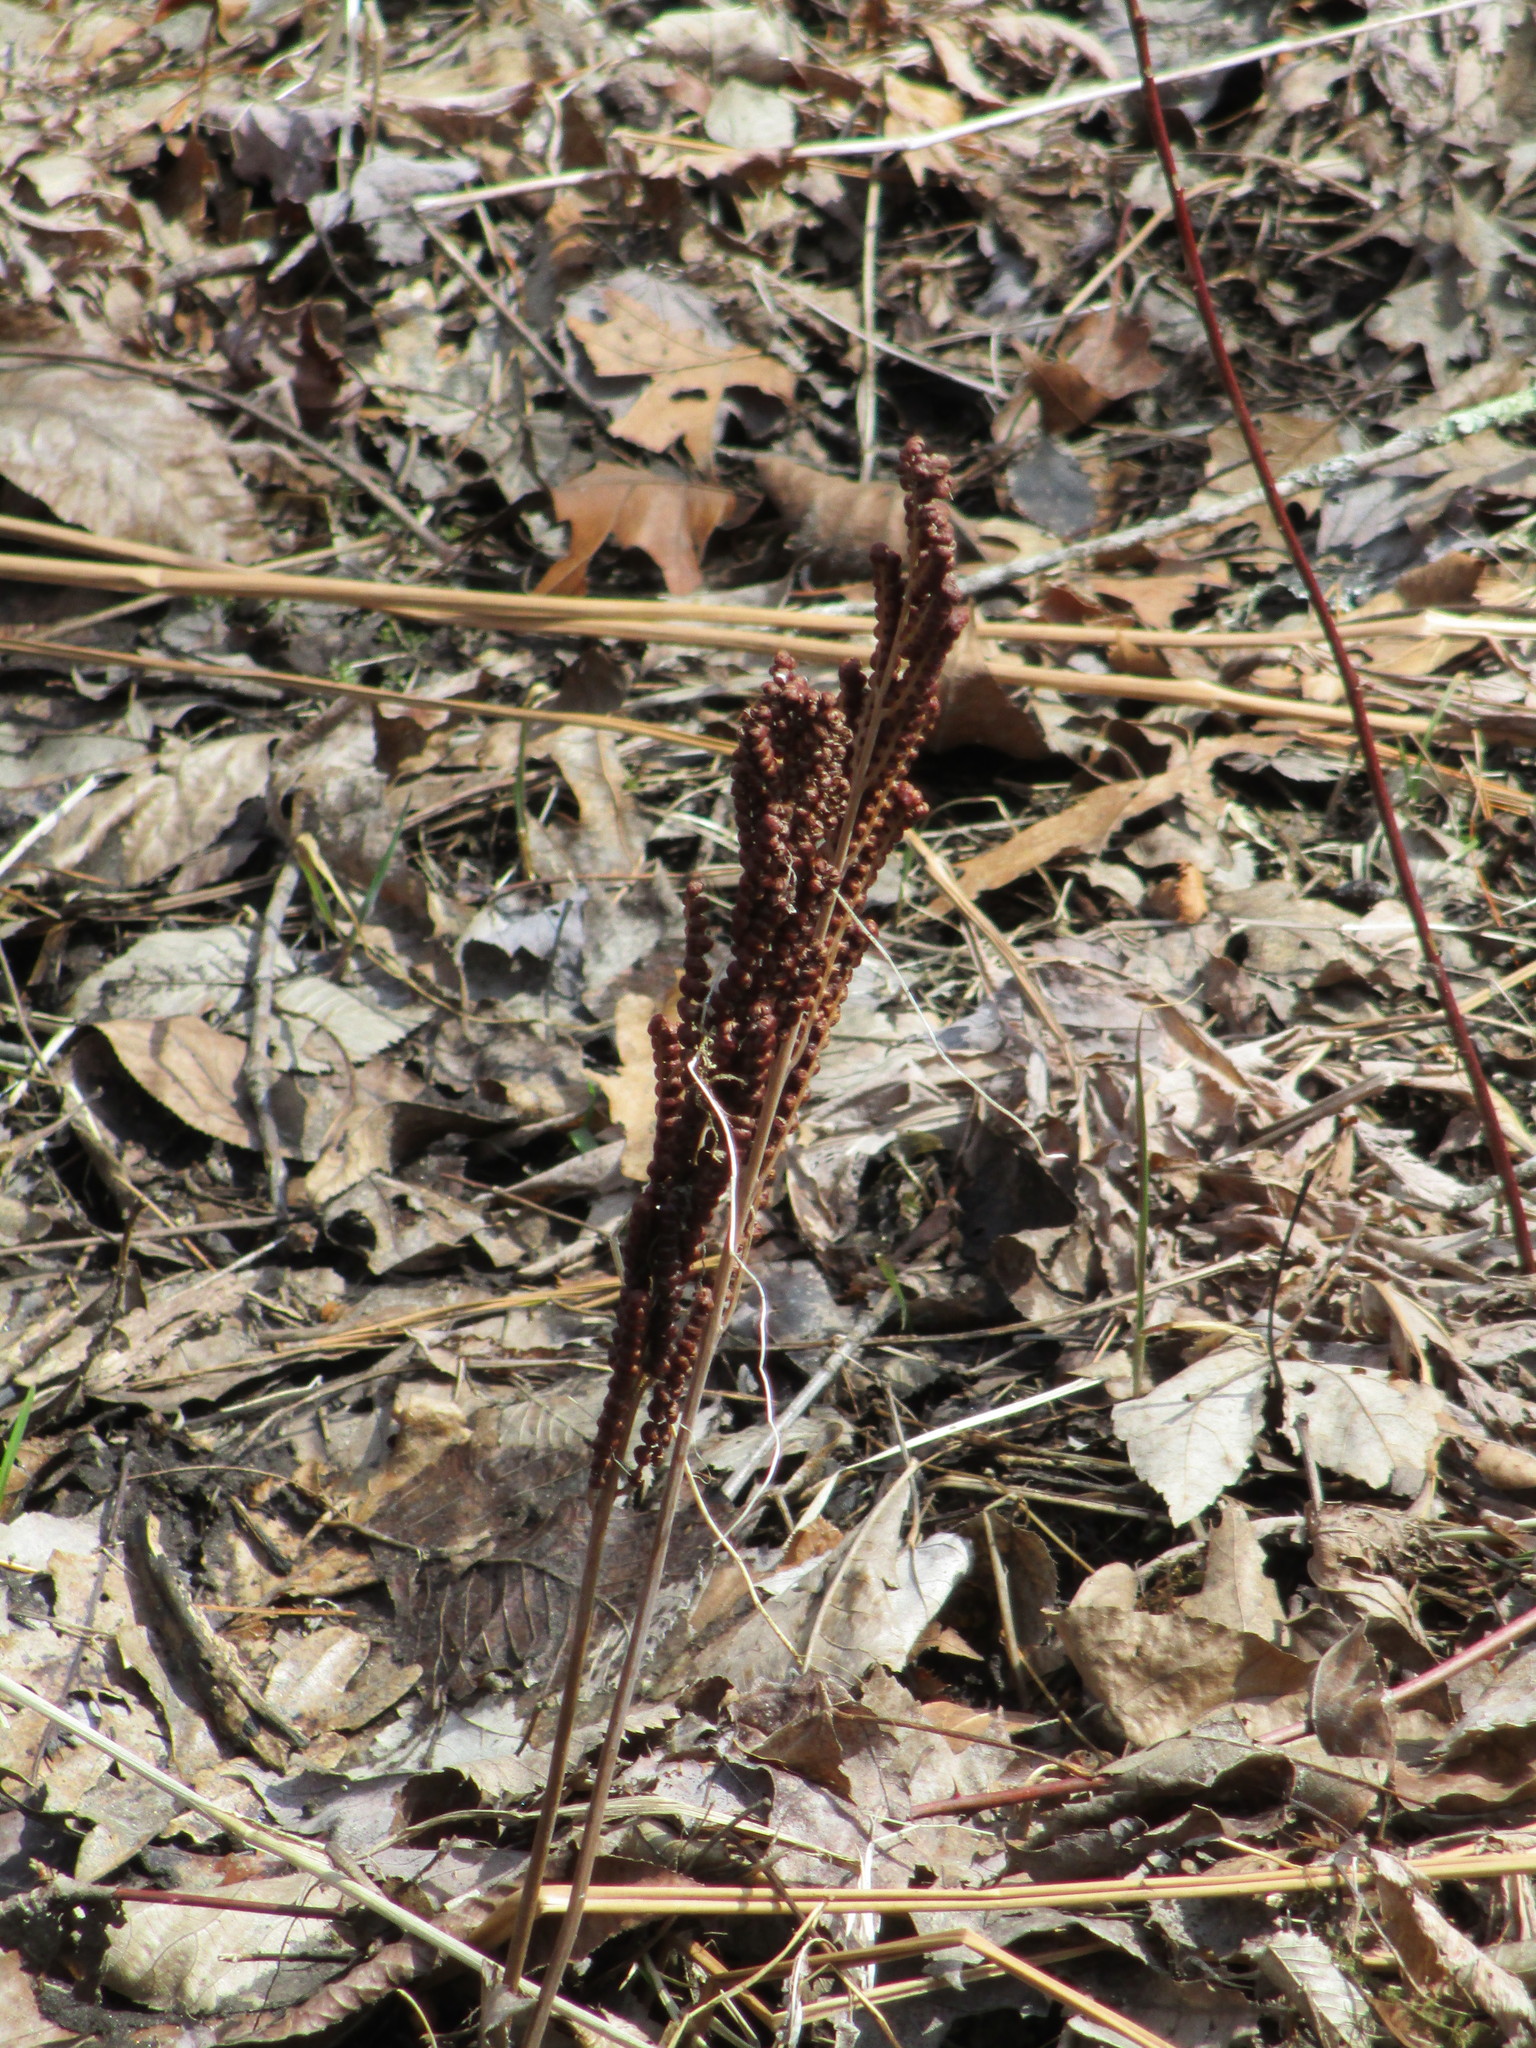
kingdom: Plantae
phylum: Tracheophyta
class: Polypodiopsida
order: Polypodiales
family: Onocleaceae
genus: Onoclea
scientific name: Onoclea sensibilis
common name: Sensitive fern
